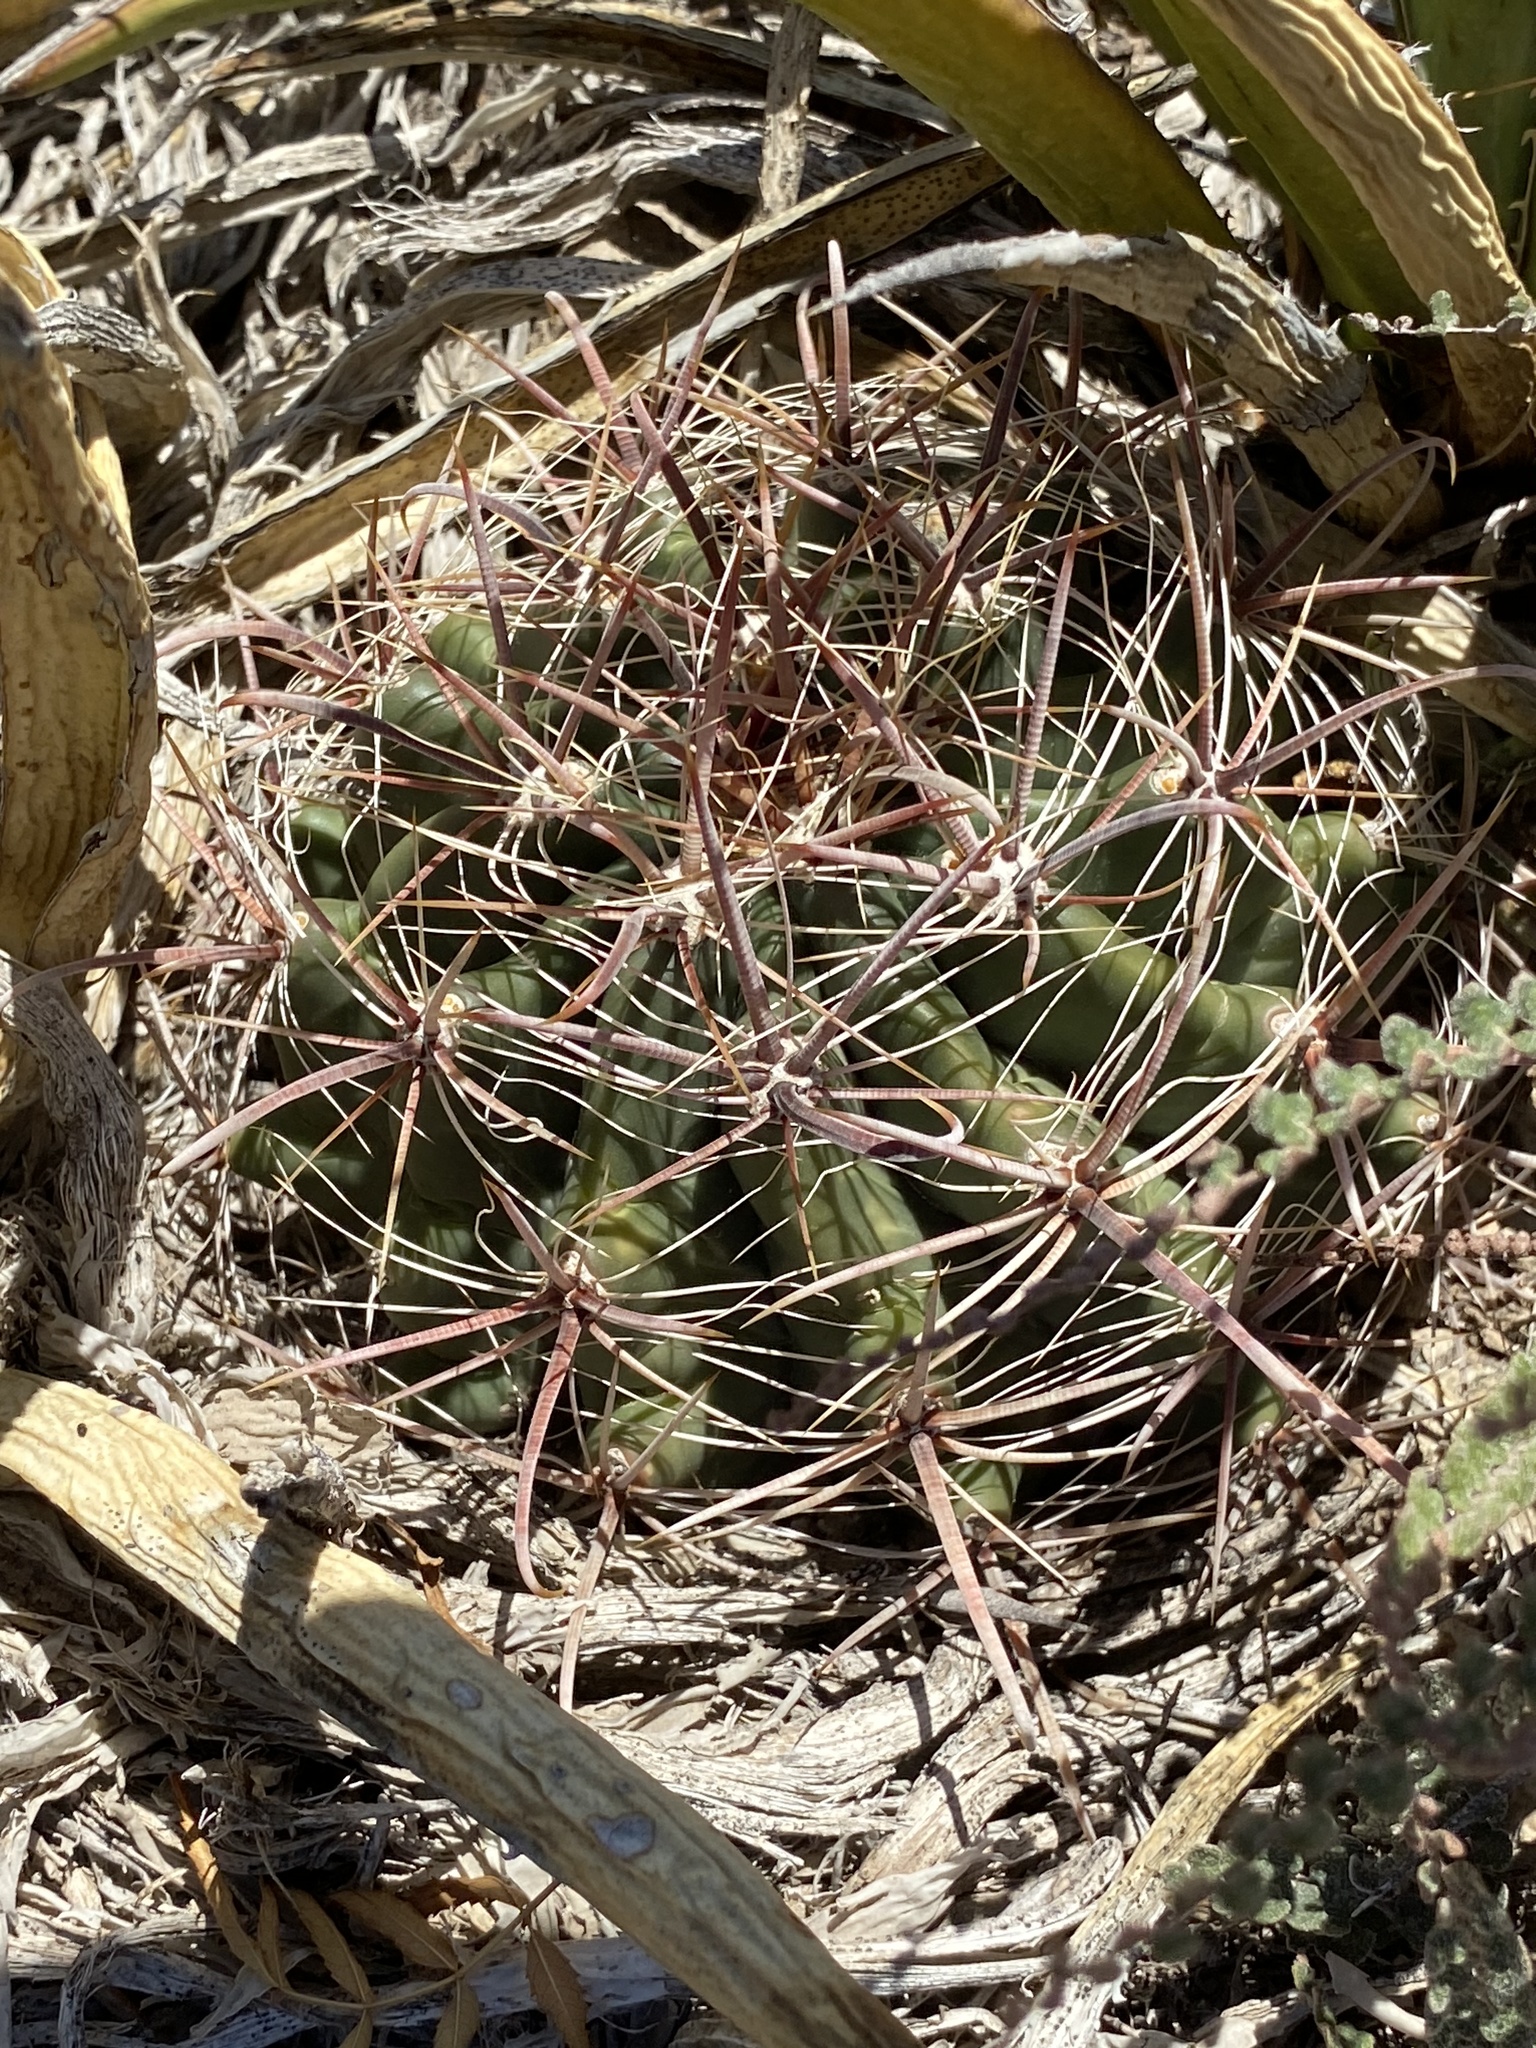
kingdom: Plantae
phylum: Tracheophyta
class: Magnoliopsida
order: Caryophyllales
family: Cactaceae
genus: Ferocactus
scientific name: Ferocactus wislizeni
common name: Candy barrel cactus
